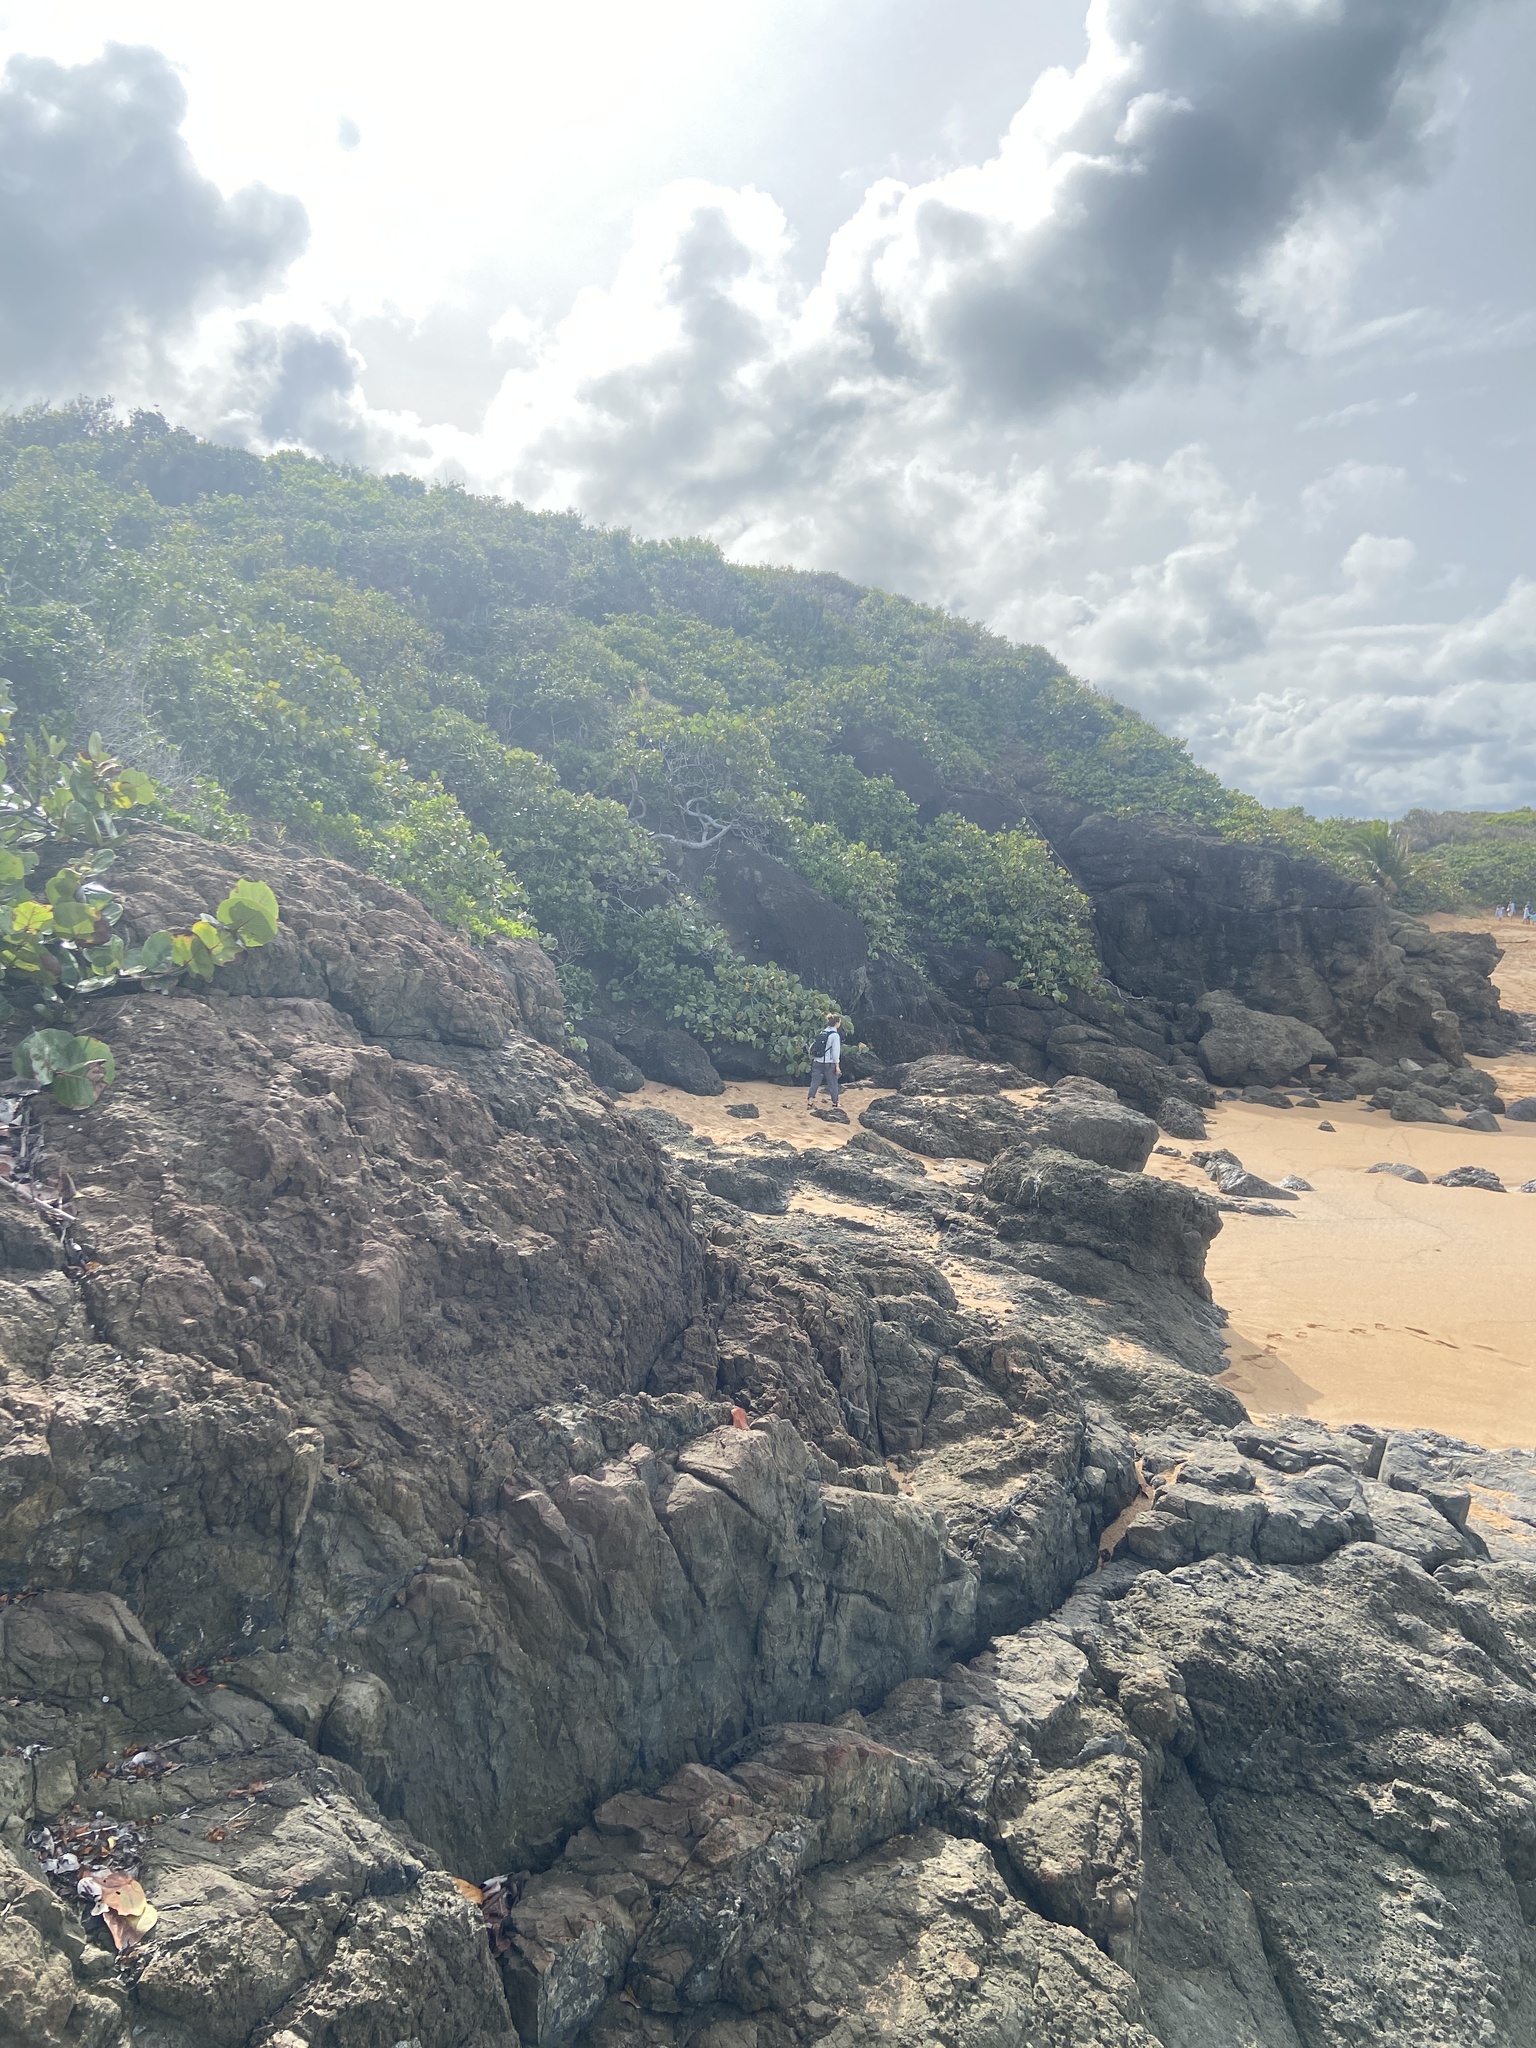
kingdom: Plantae
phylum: Tracheophyta
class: Magnoliopsida
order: Caryophyllales
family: Polygonaceae
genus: Coccoloba
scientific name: Coccoloba uvifera
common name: Seagrape
